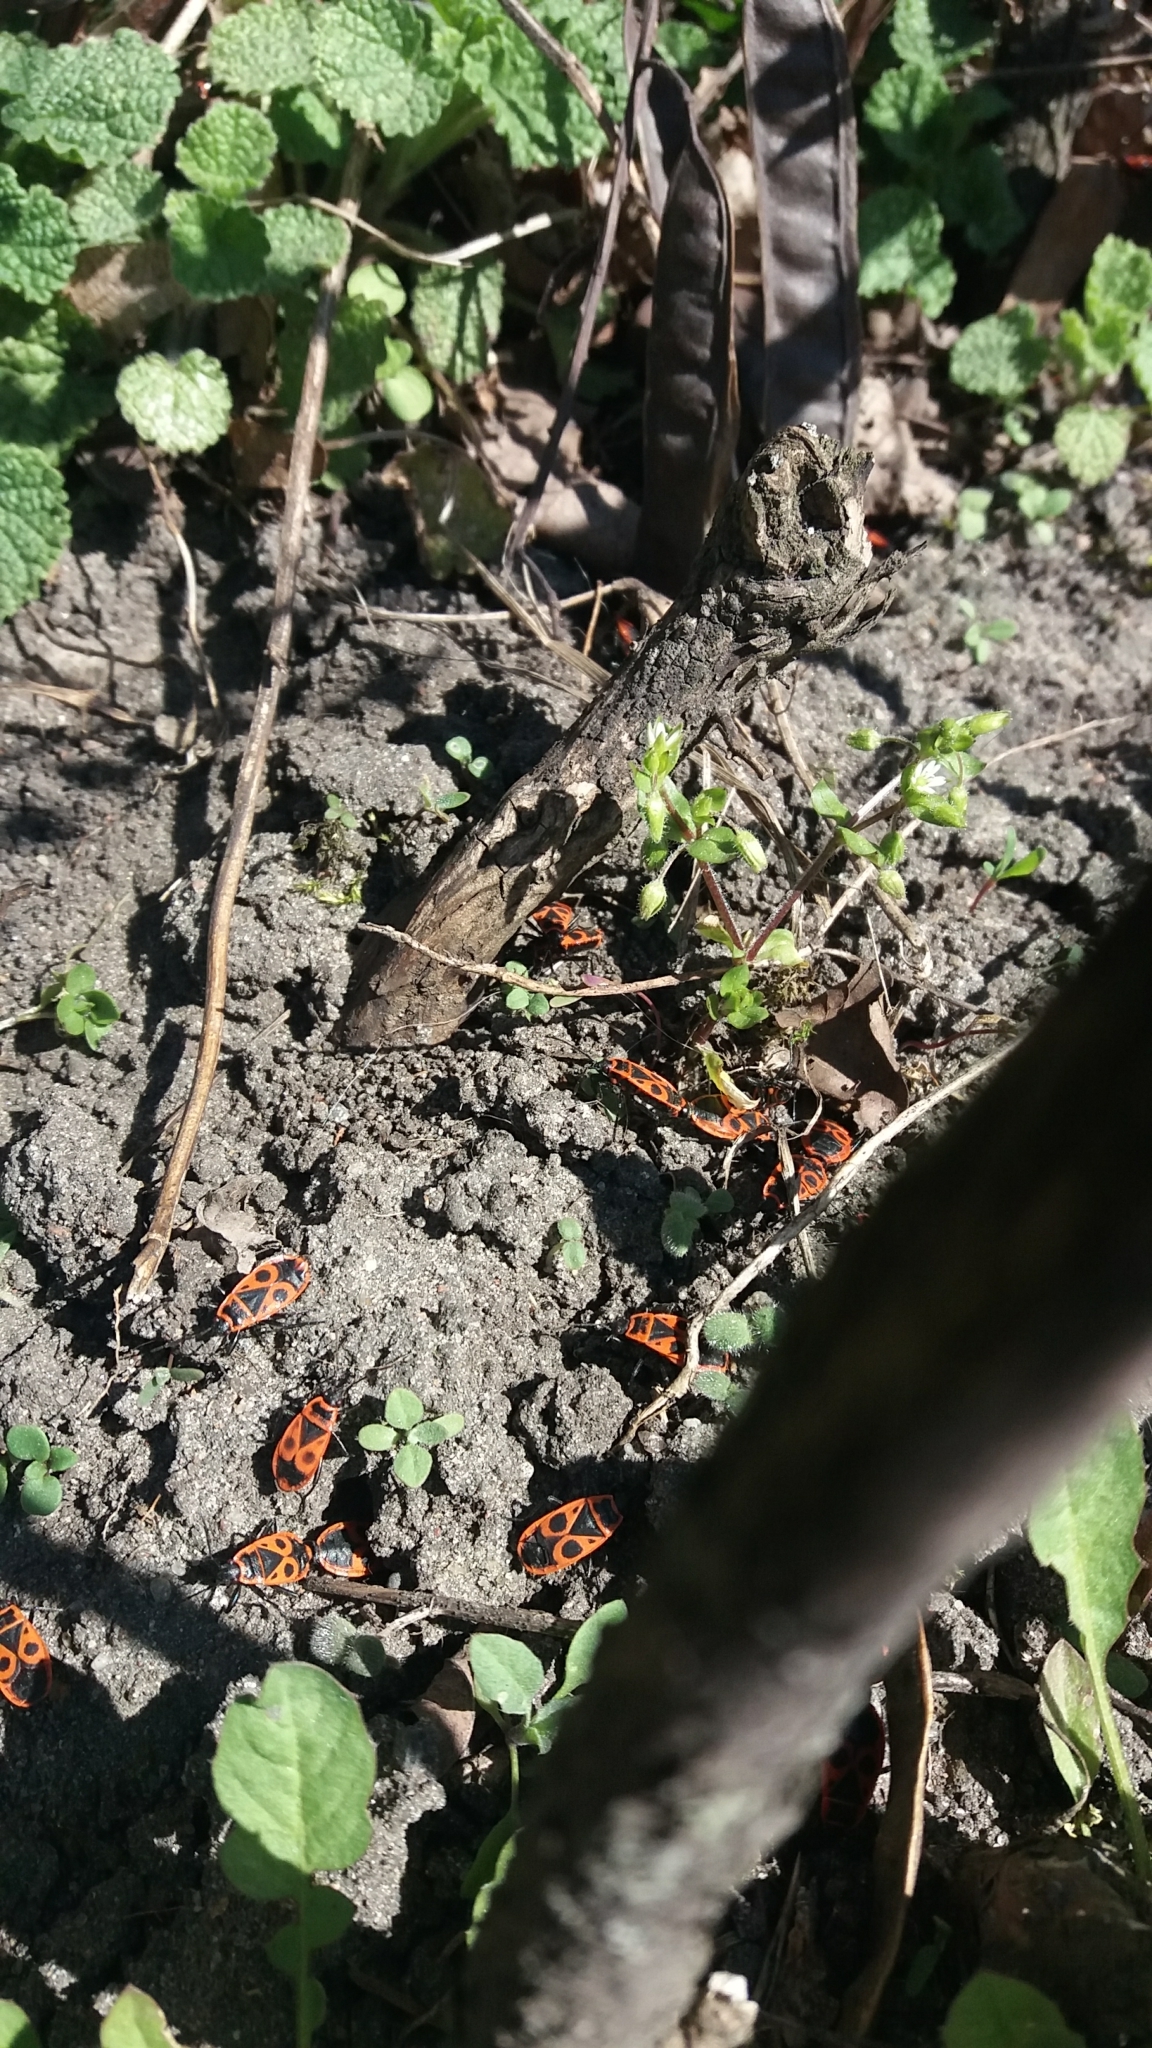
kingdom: Animalia
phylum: Arthropoda
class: Insecta
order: Hemiptera
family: Pyrrhocoridae
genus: Pyrrhocoris
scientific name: Pyrrhocoris apterus
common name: Firebug
